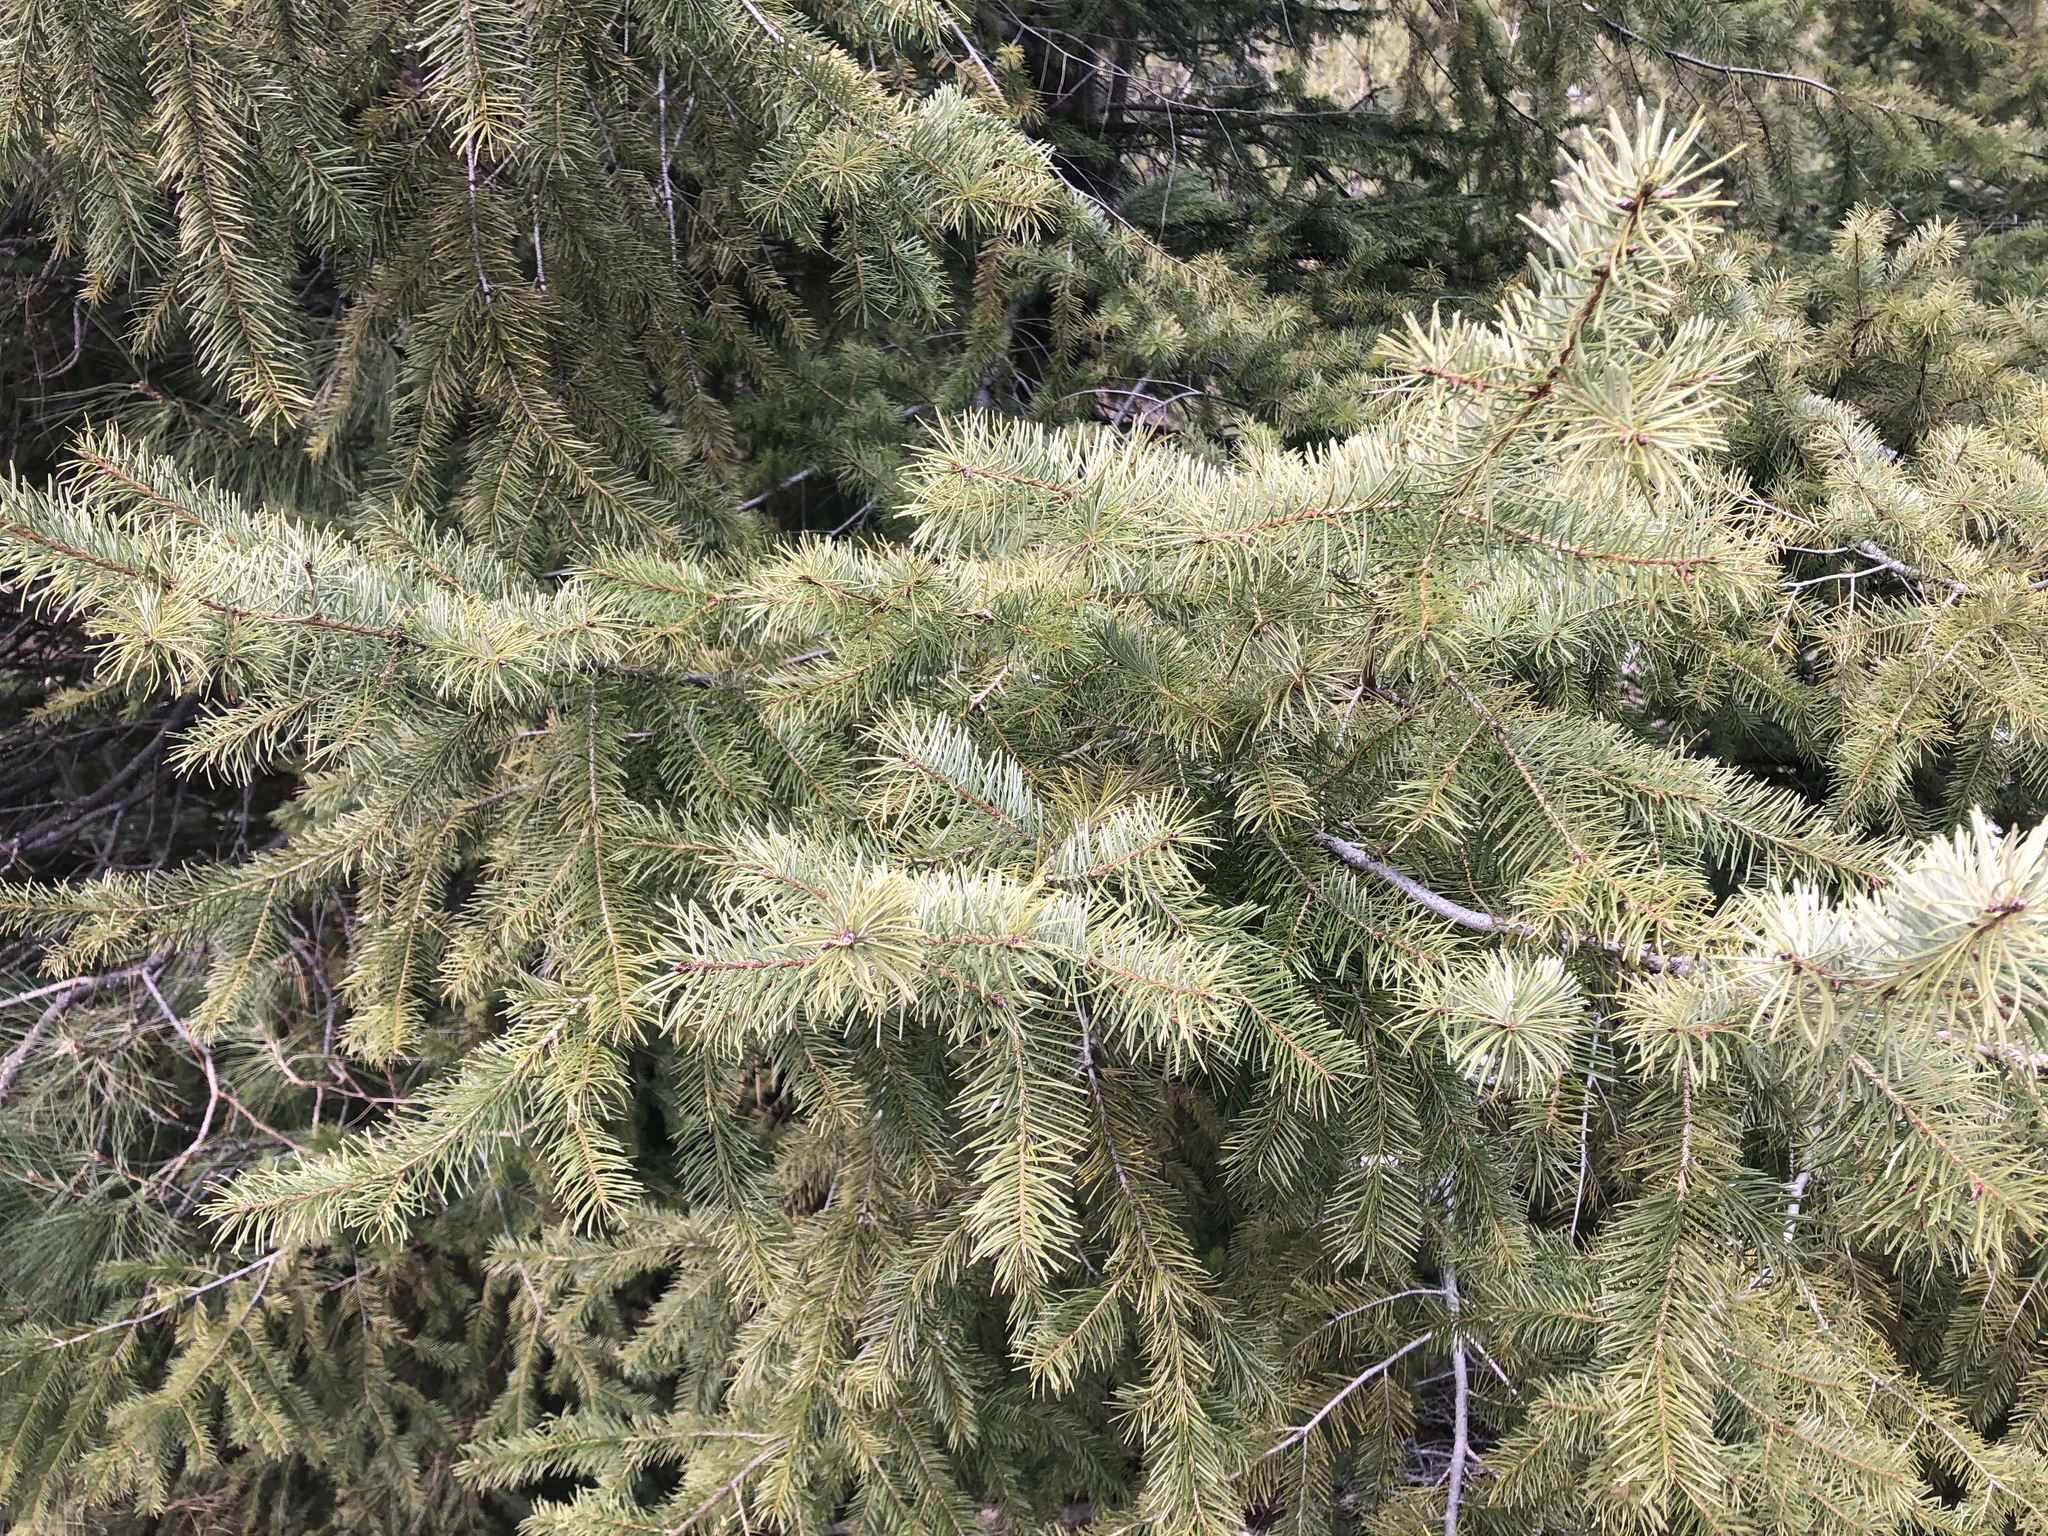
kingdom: Plantae
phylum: Tracheophyta
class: Pinopsida
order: Pinales
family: Pinaceae
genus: Pseudotsuga
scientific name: Pseudotsuga menziesii
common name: Douglas fir
